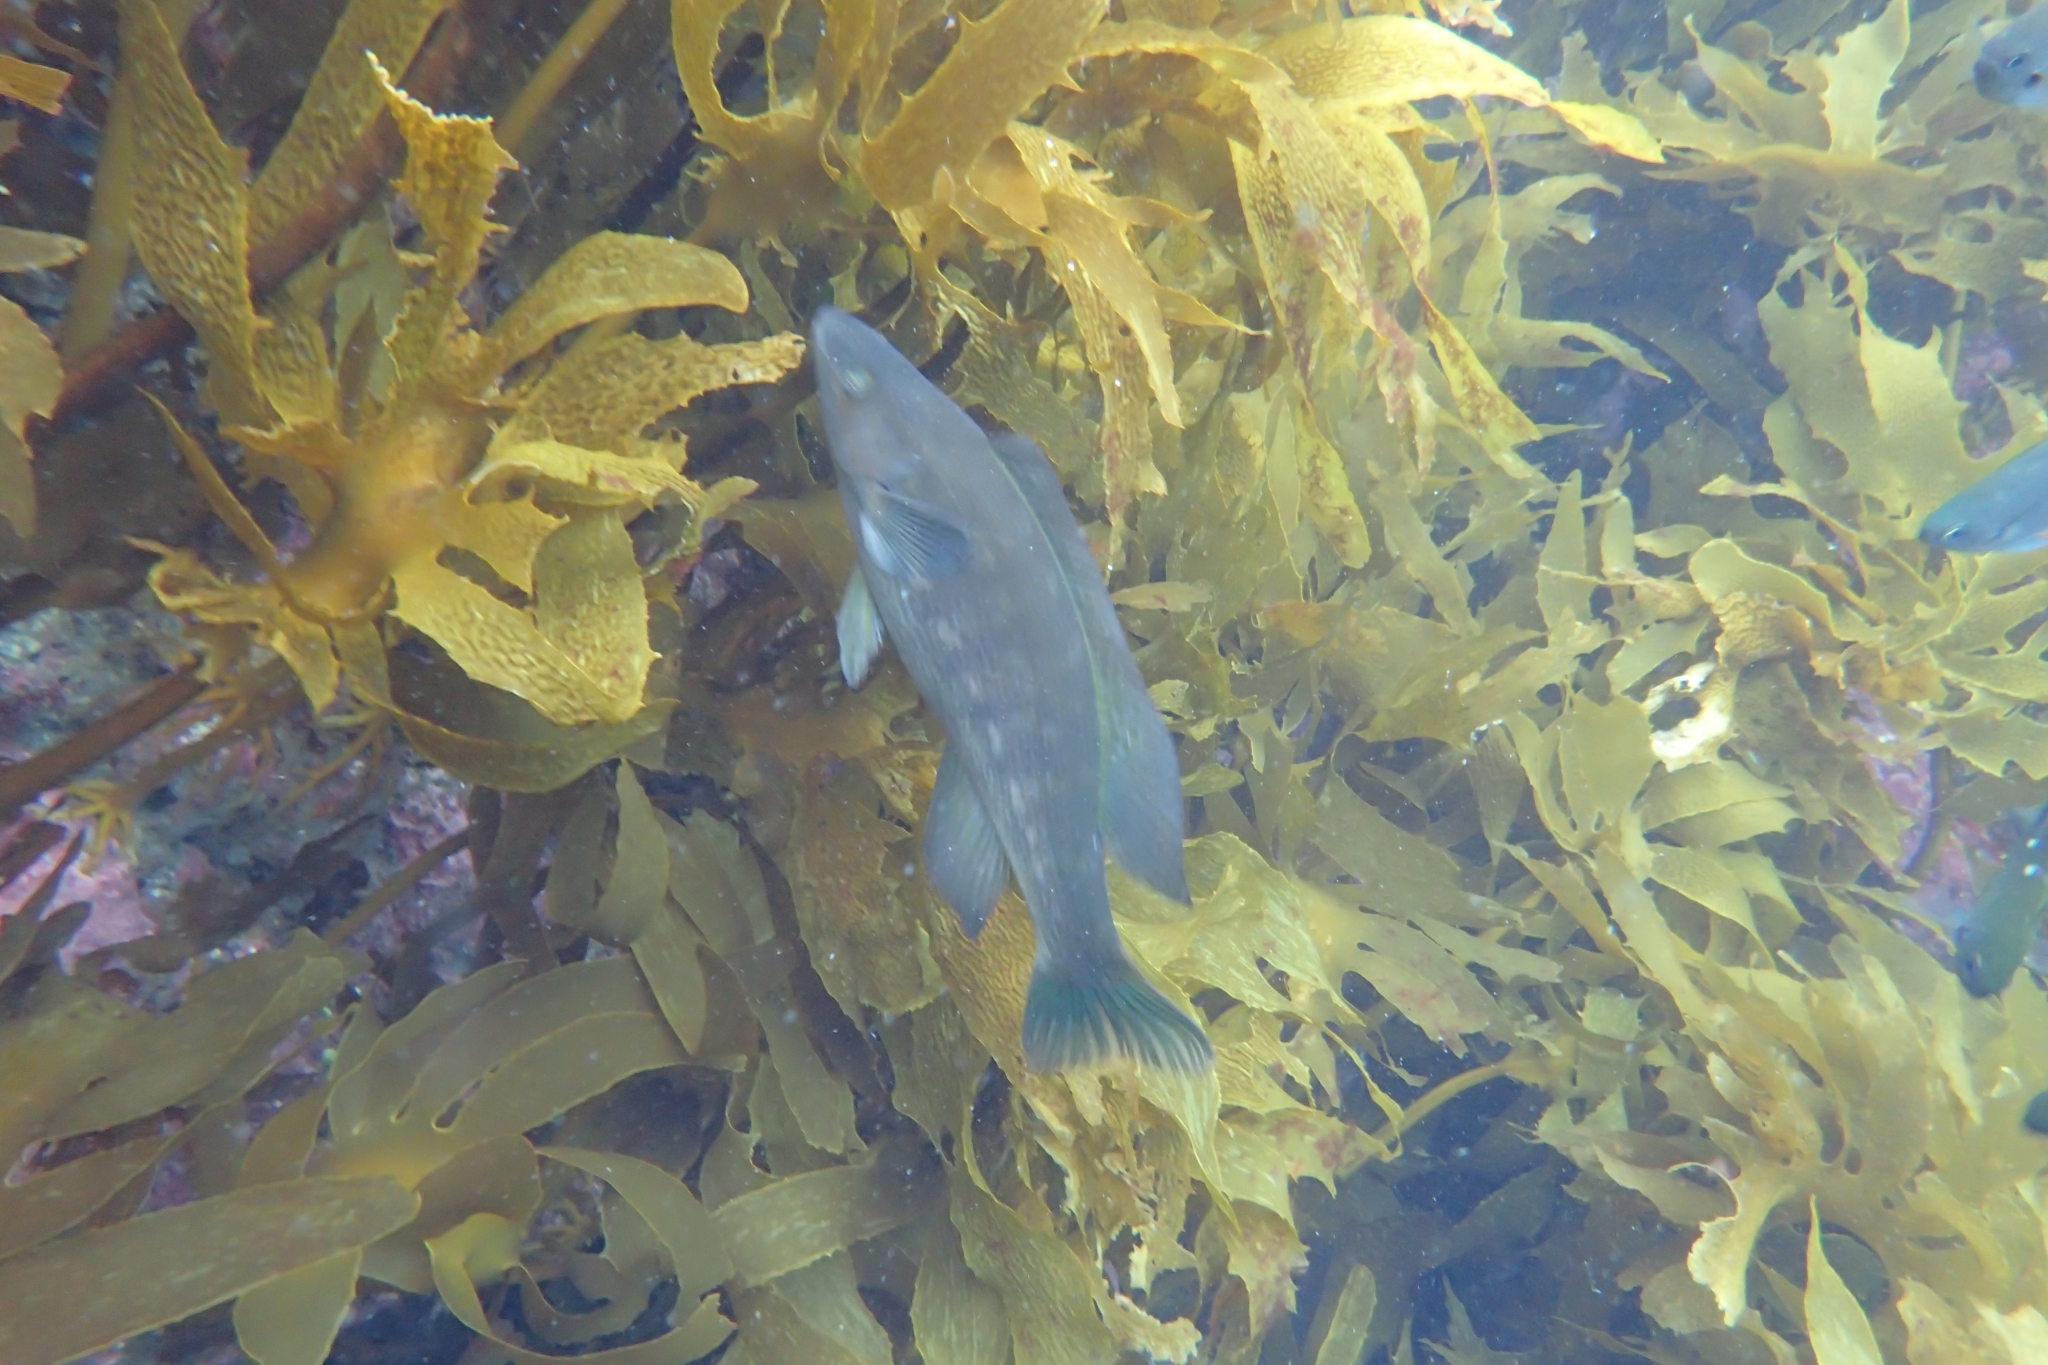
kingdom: Animalia
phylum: Chordata
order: Perciformes
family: Odacidae
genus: Odax
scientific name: Odax pullus
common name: Butterfish
